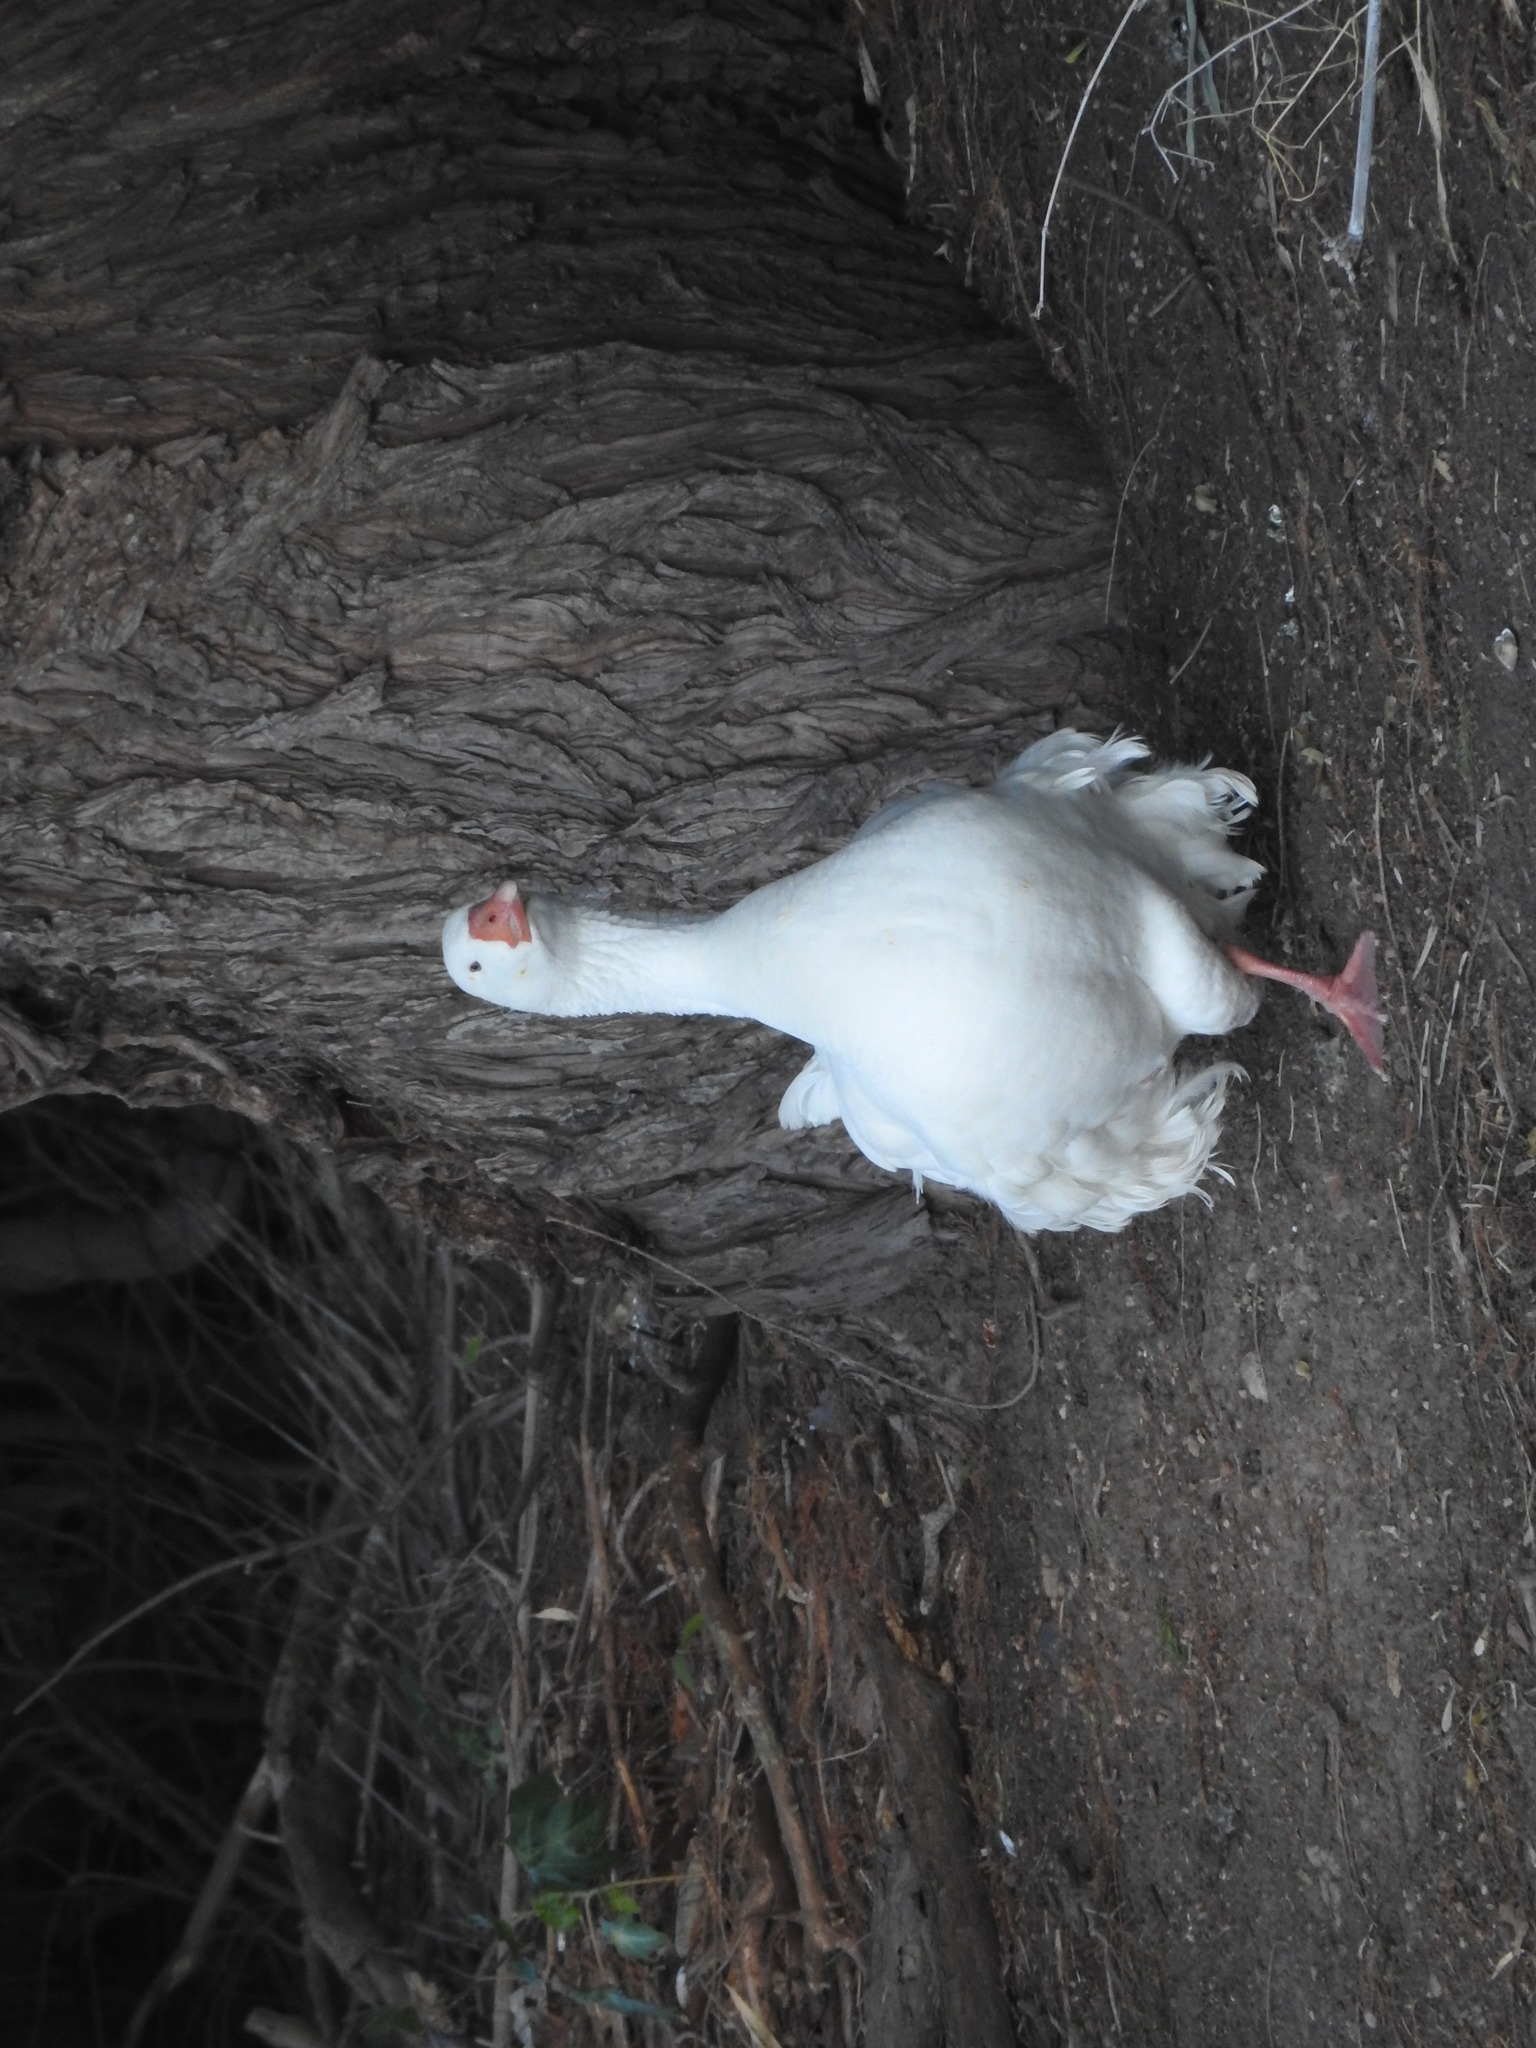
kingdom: Animalia
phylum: Chordata
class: Aves
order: Anseriformes
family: Anatidae
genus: Anser
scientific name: Anser anser
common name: Greylag goose
